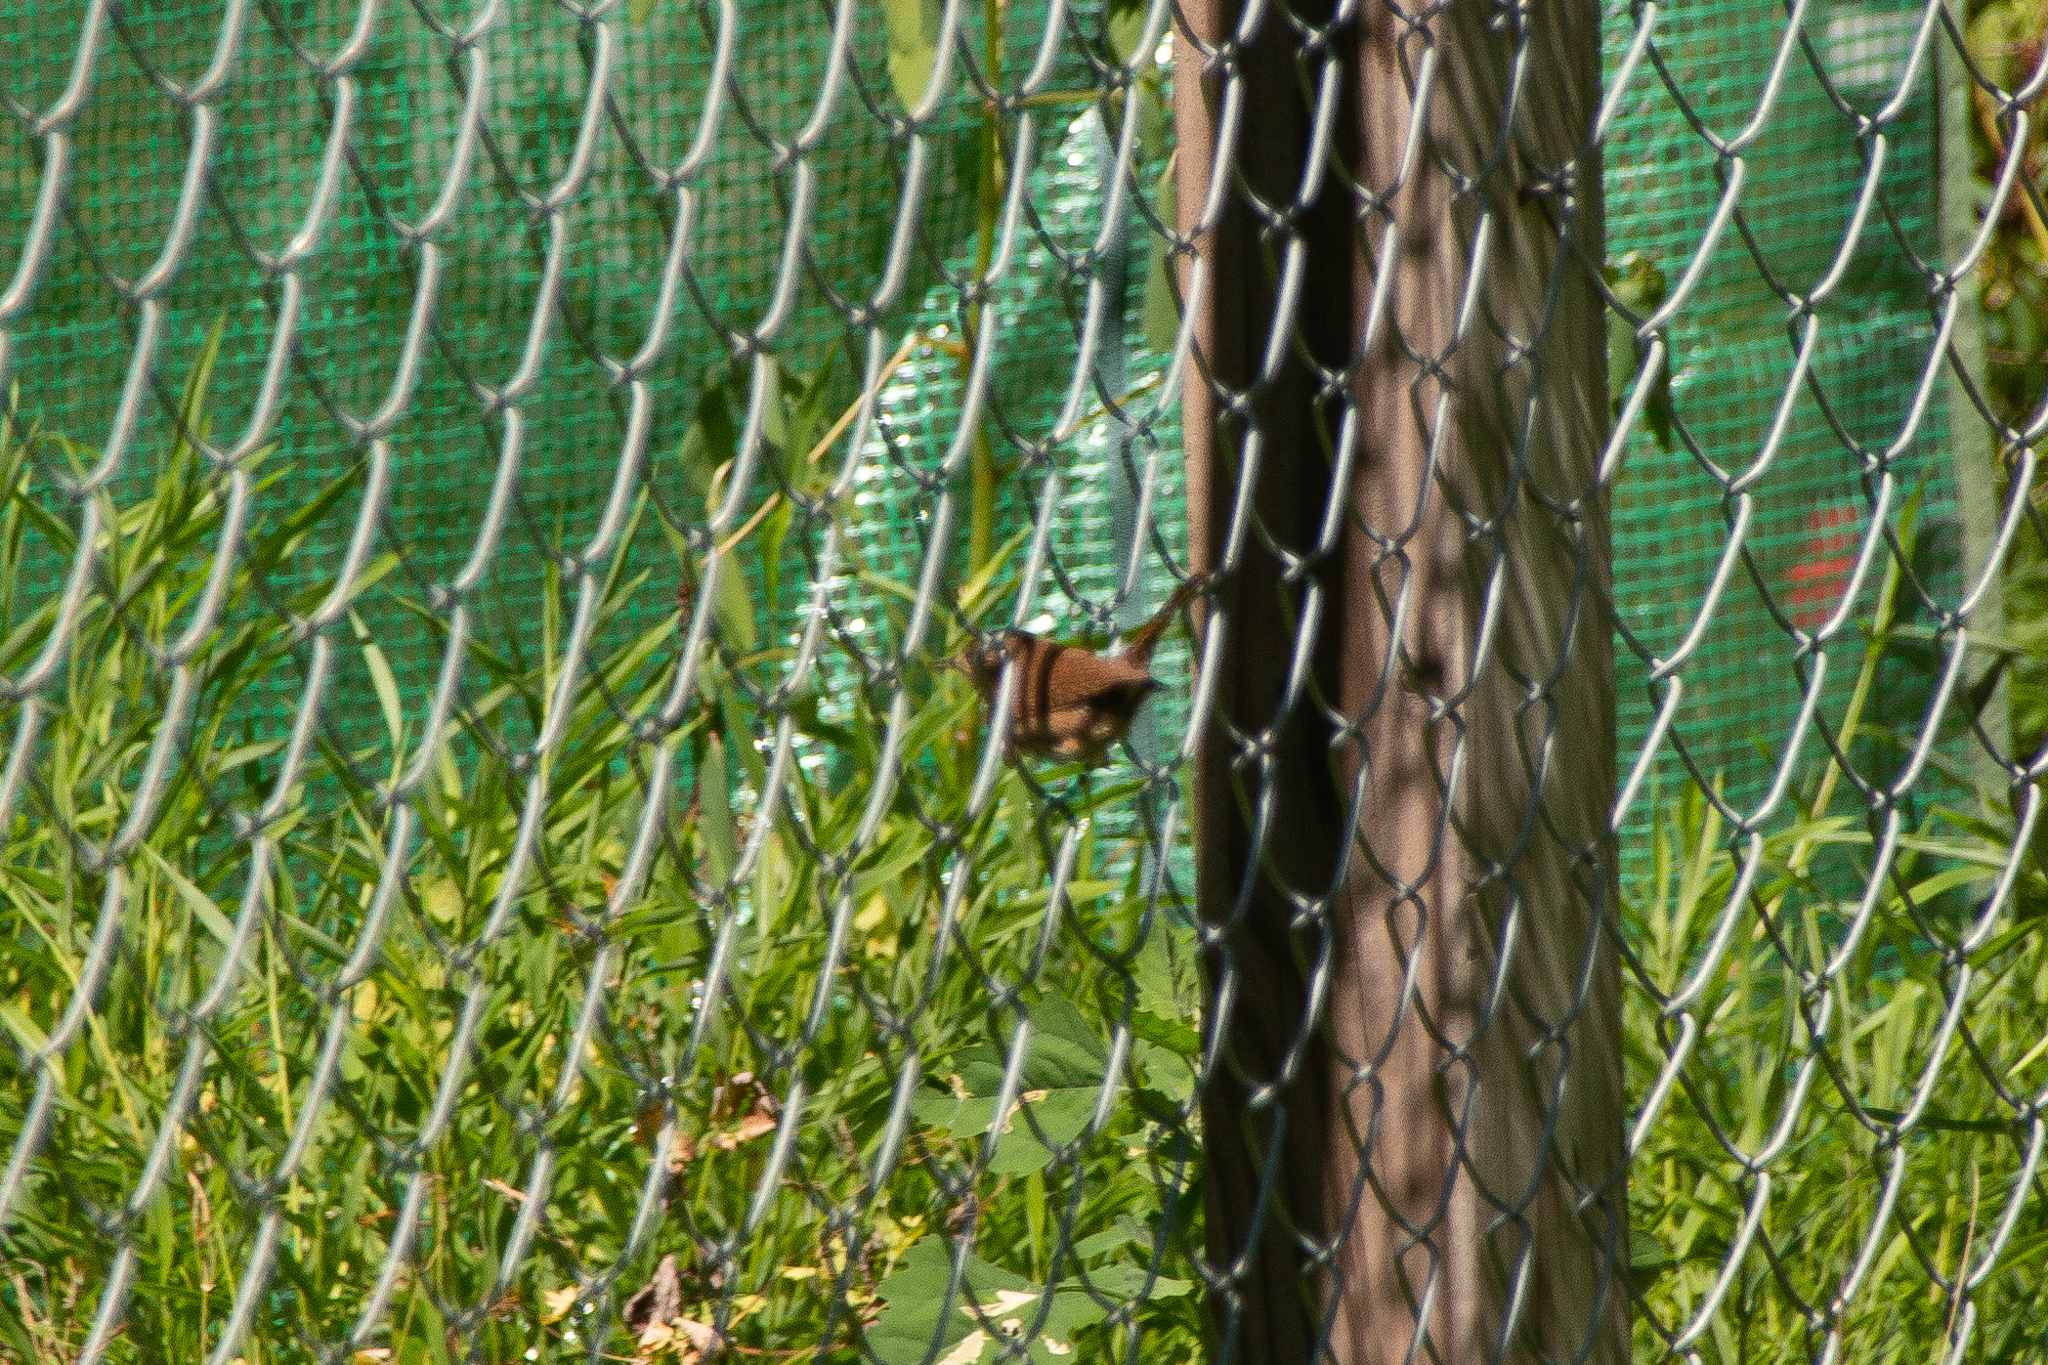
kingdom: Animalia
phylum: Chordata
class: Aves
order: Passeriformes
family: Troglodytidae
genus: Troglodytes
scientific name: Troglodytes aedon
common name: House wren
